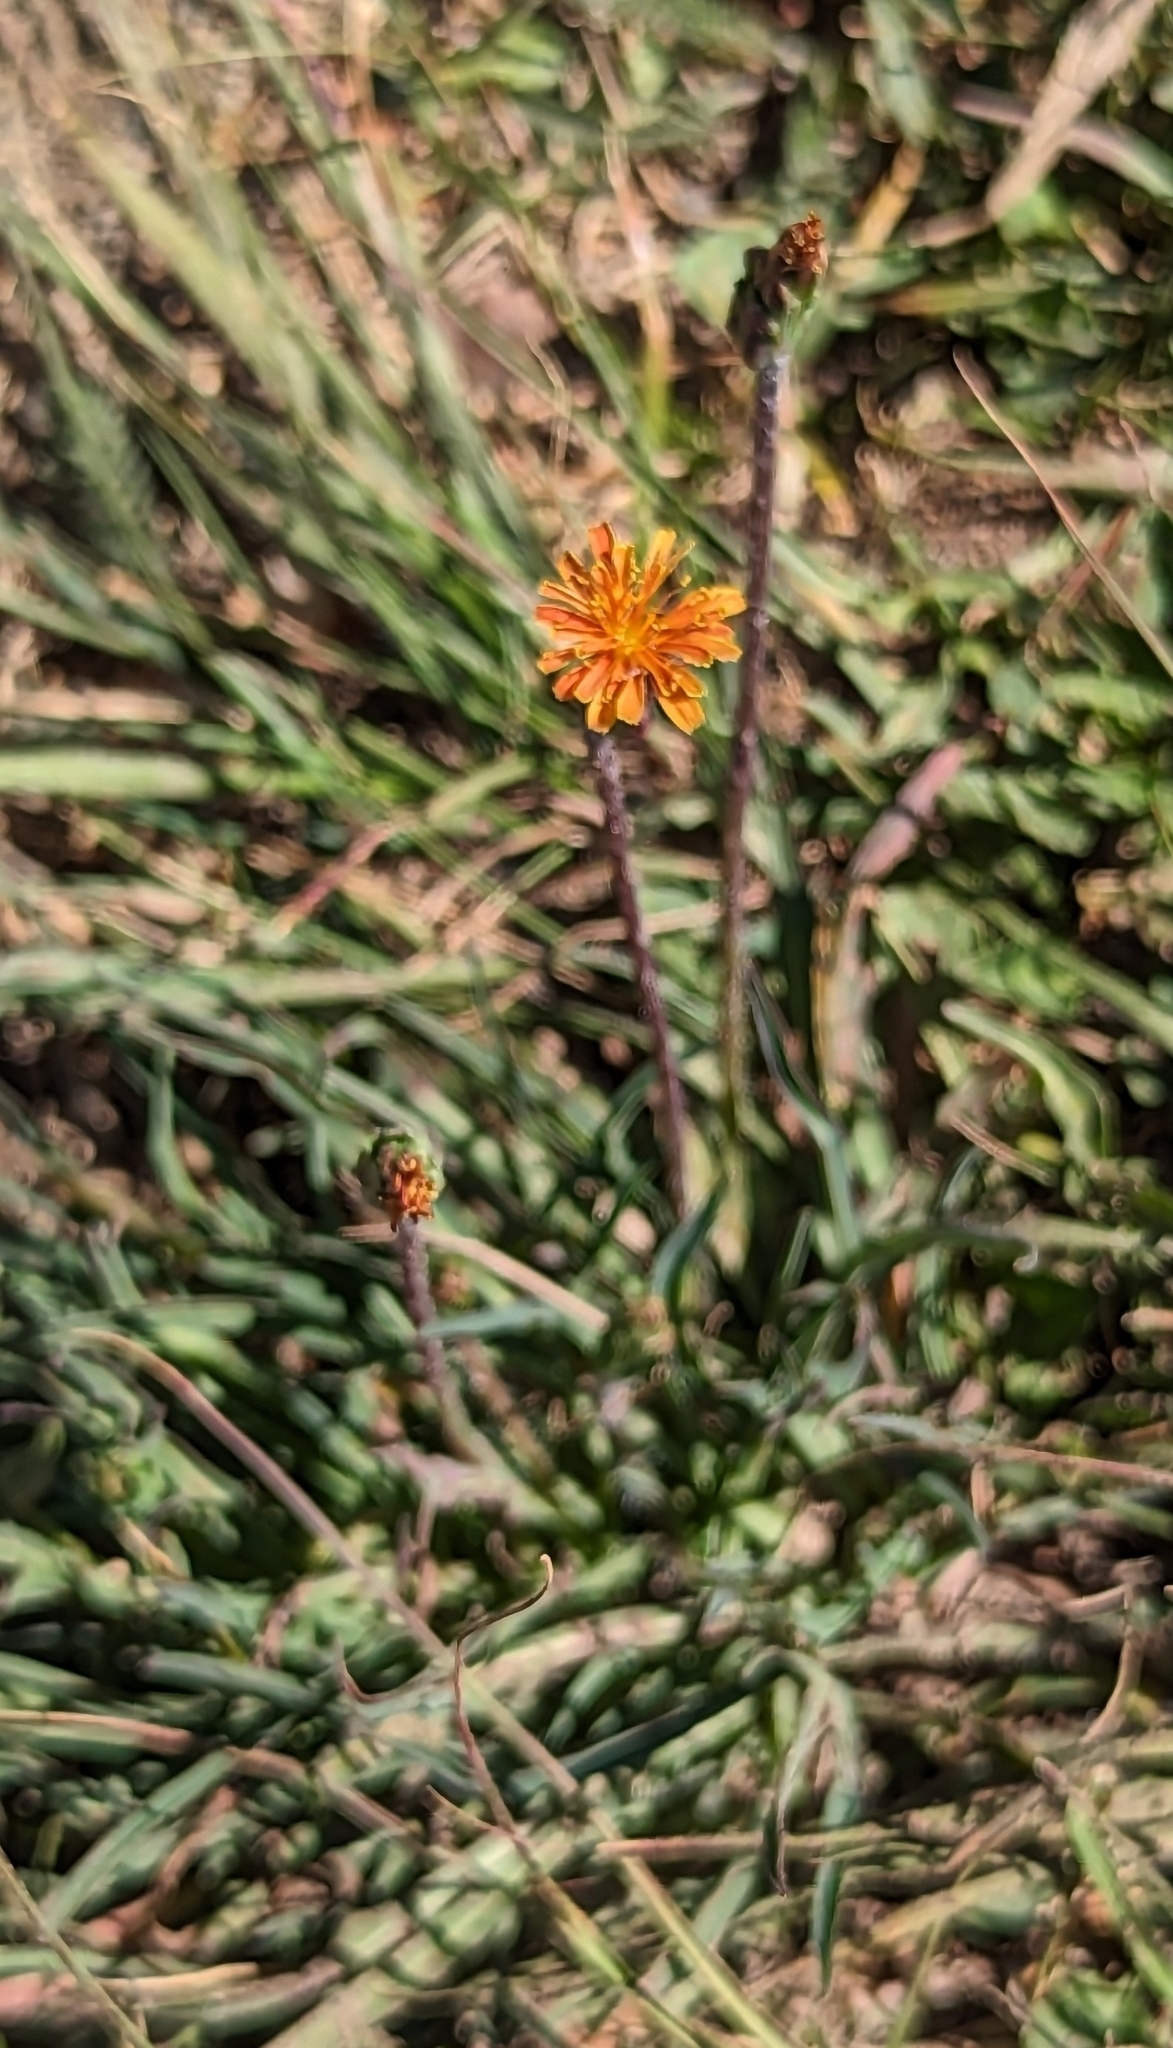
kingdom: Plantae
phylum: Tracheophyta
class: Magnoliopsida
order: Asterales
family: Asteraceae
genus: Agoseris
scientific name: Agoseris aurantiaca
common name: Mountain agoseris
